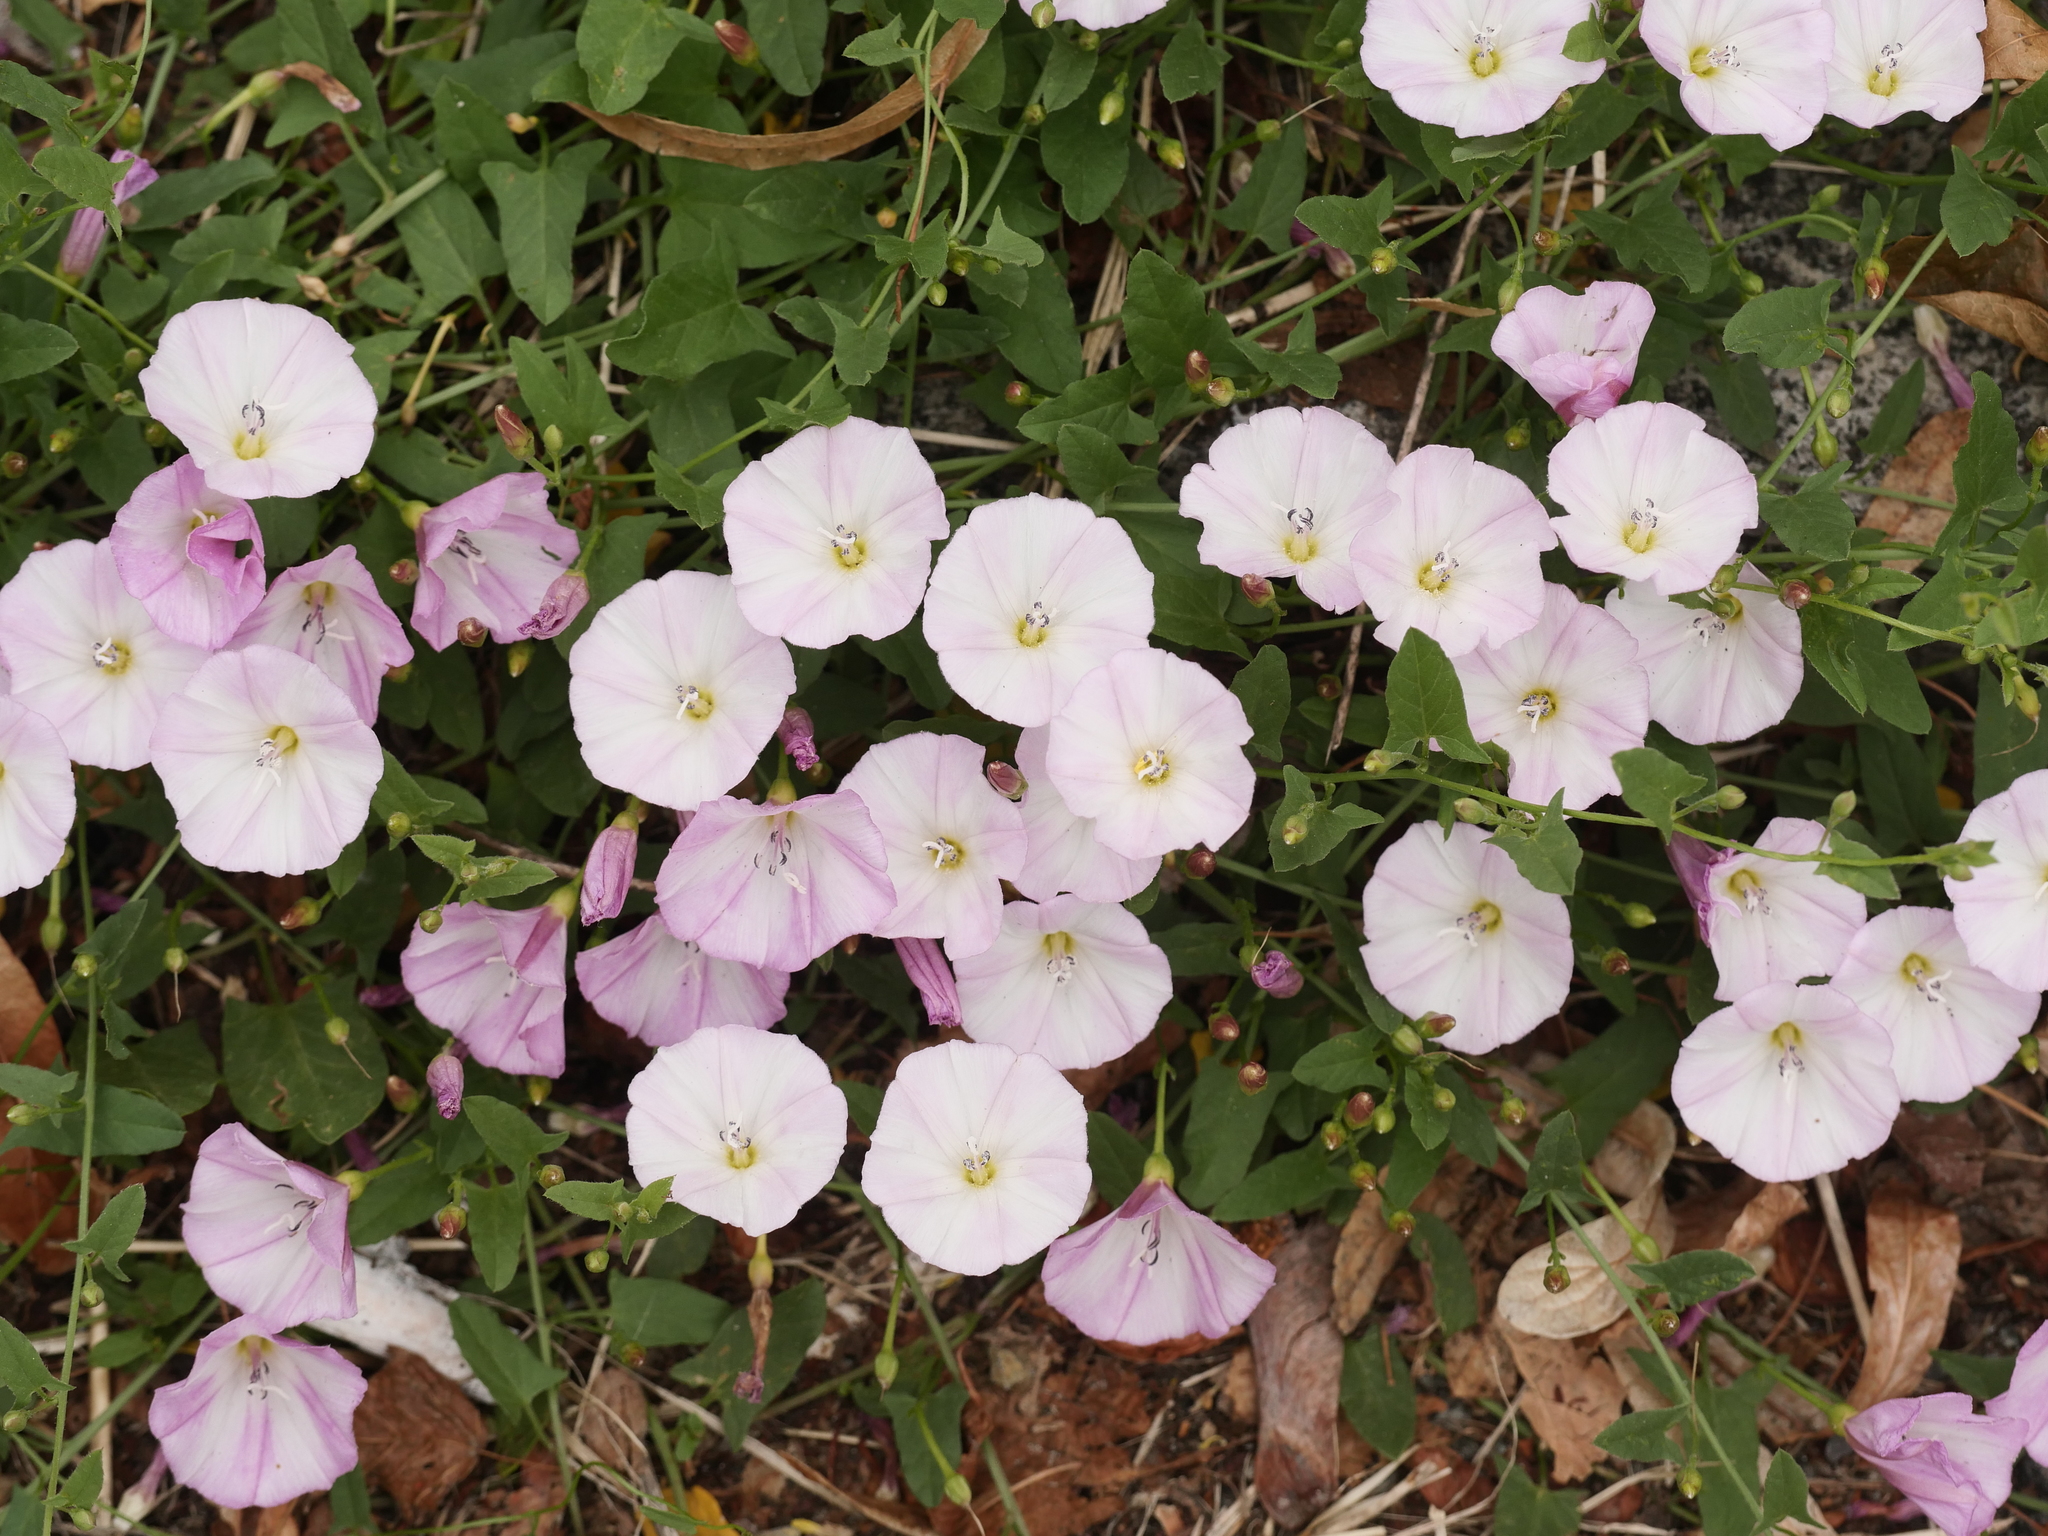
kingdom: Plantae
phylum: Tracheophyta
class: Magnoliopsida
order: Solanales
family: Convolvulaceae
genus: Convolvulus
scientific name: Convolvulus arvensis
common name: Field bindweed
